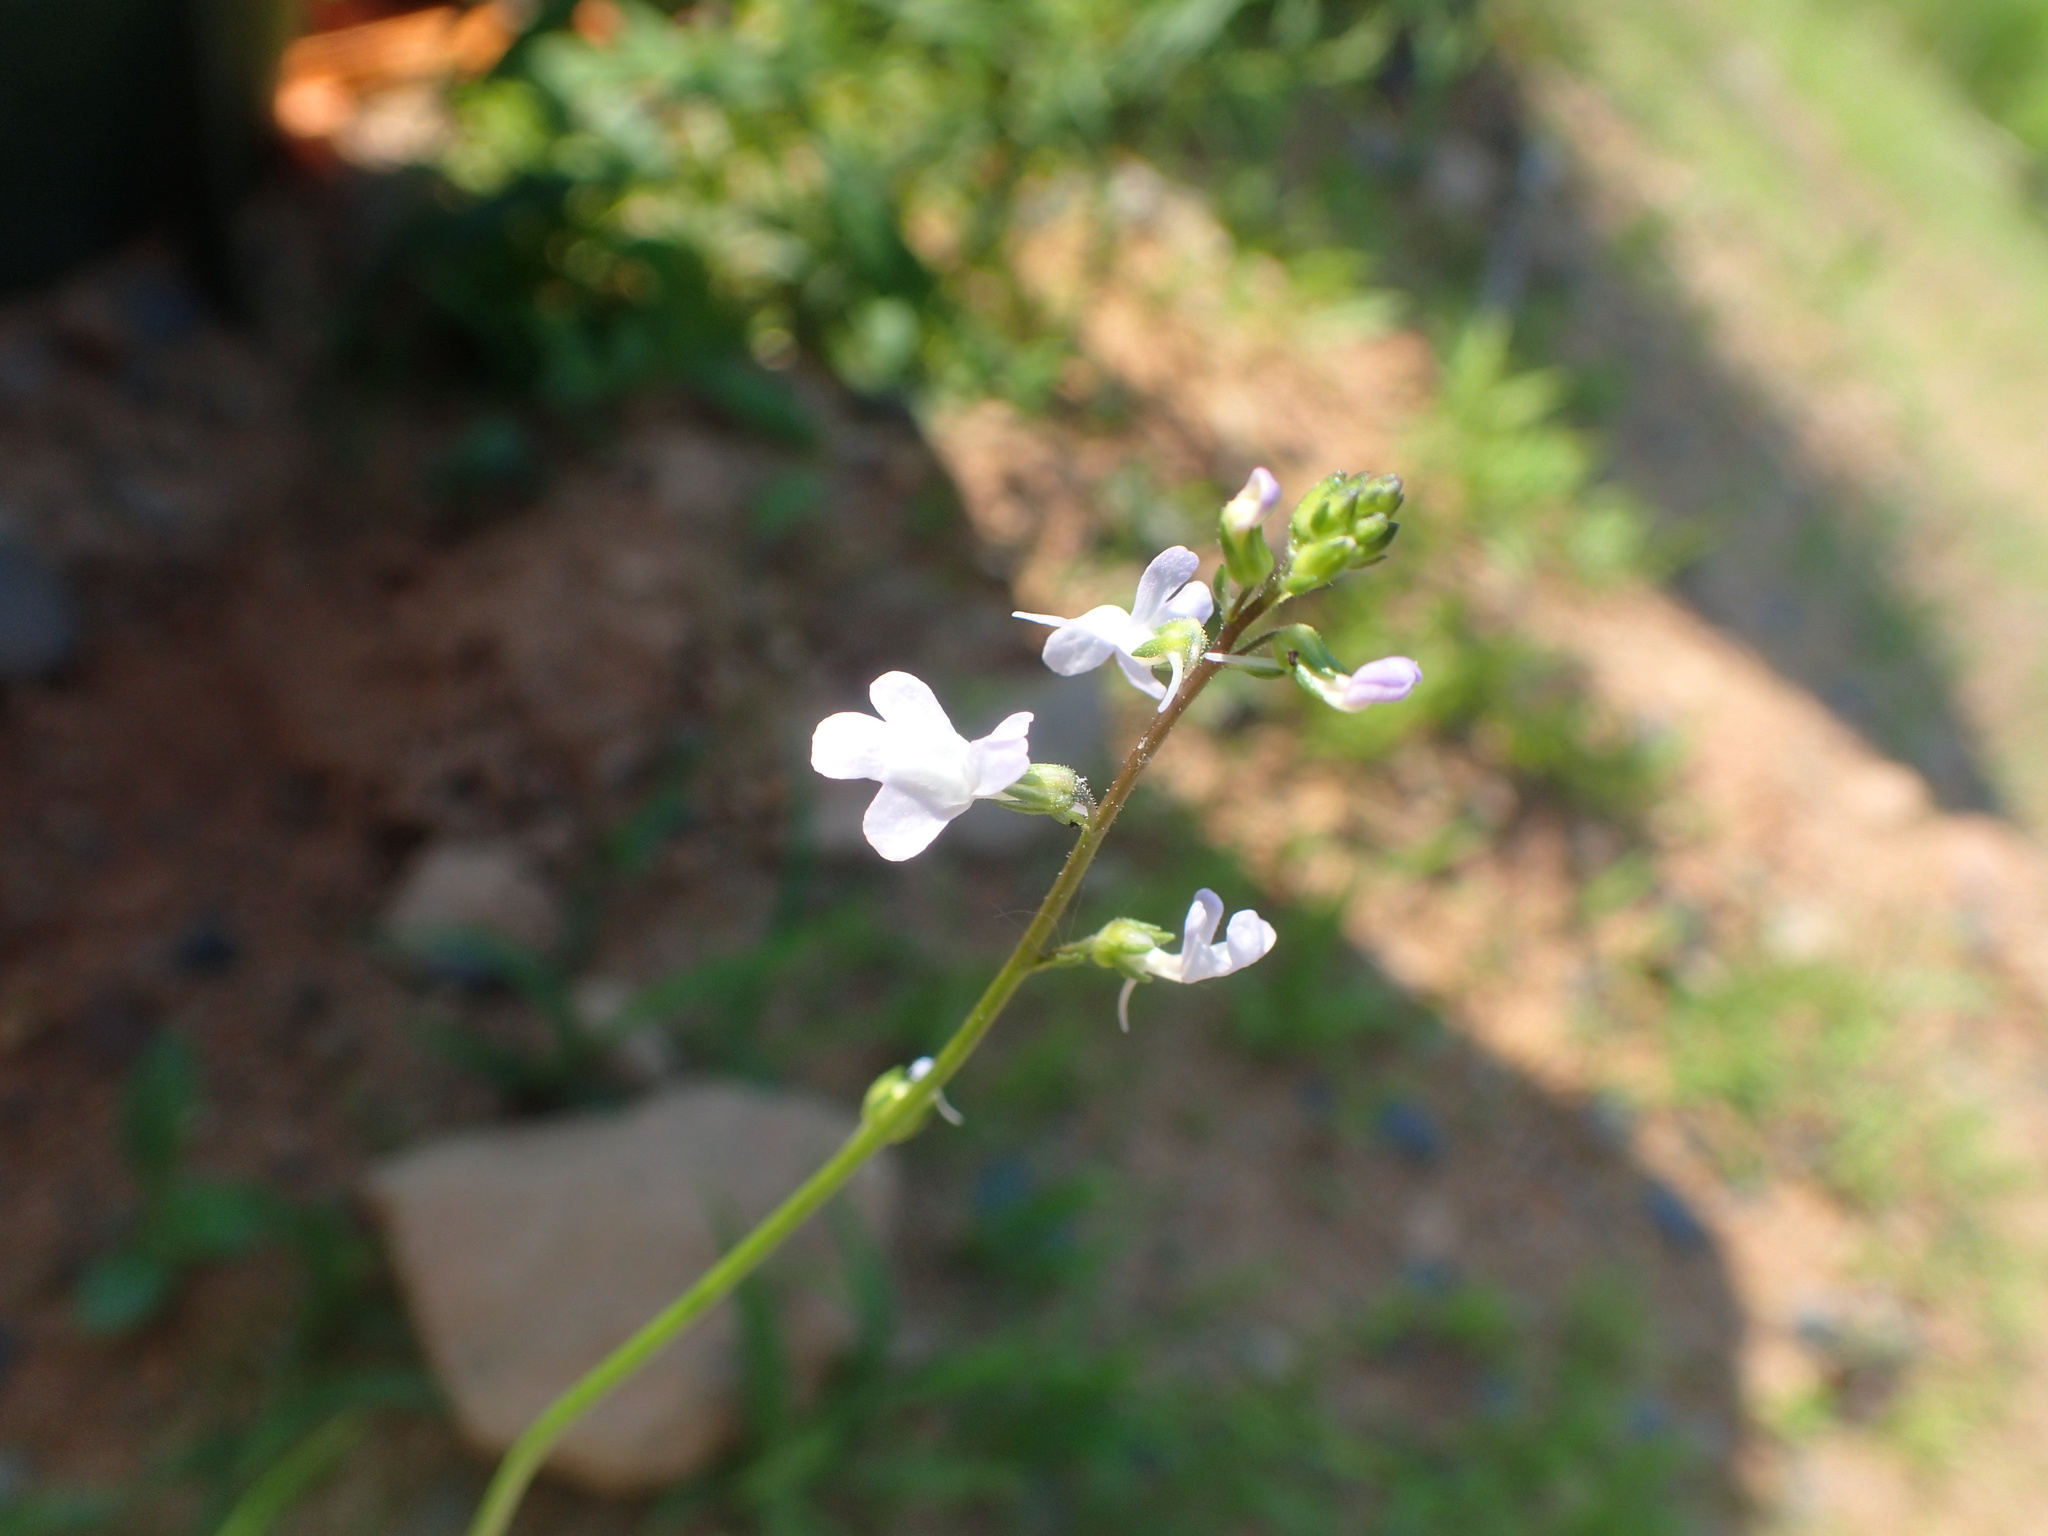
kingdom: Plantae
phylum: Tracheophyta
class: Magnoliopsida
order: Lamiales
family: Plantaginaceae
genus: Nuttallanthus
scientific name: Nuttallanthus canadensis
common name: Blue toadflax
